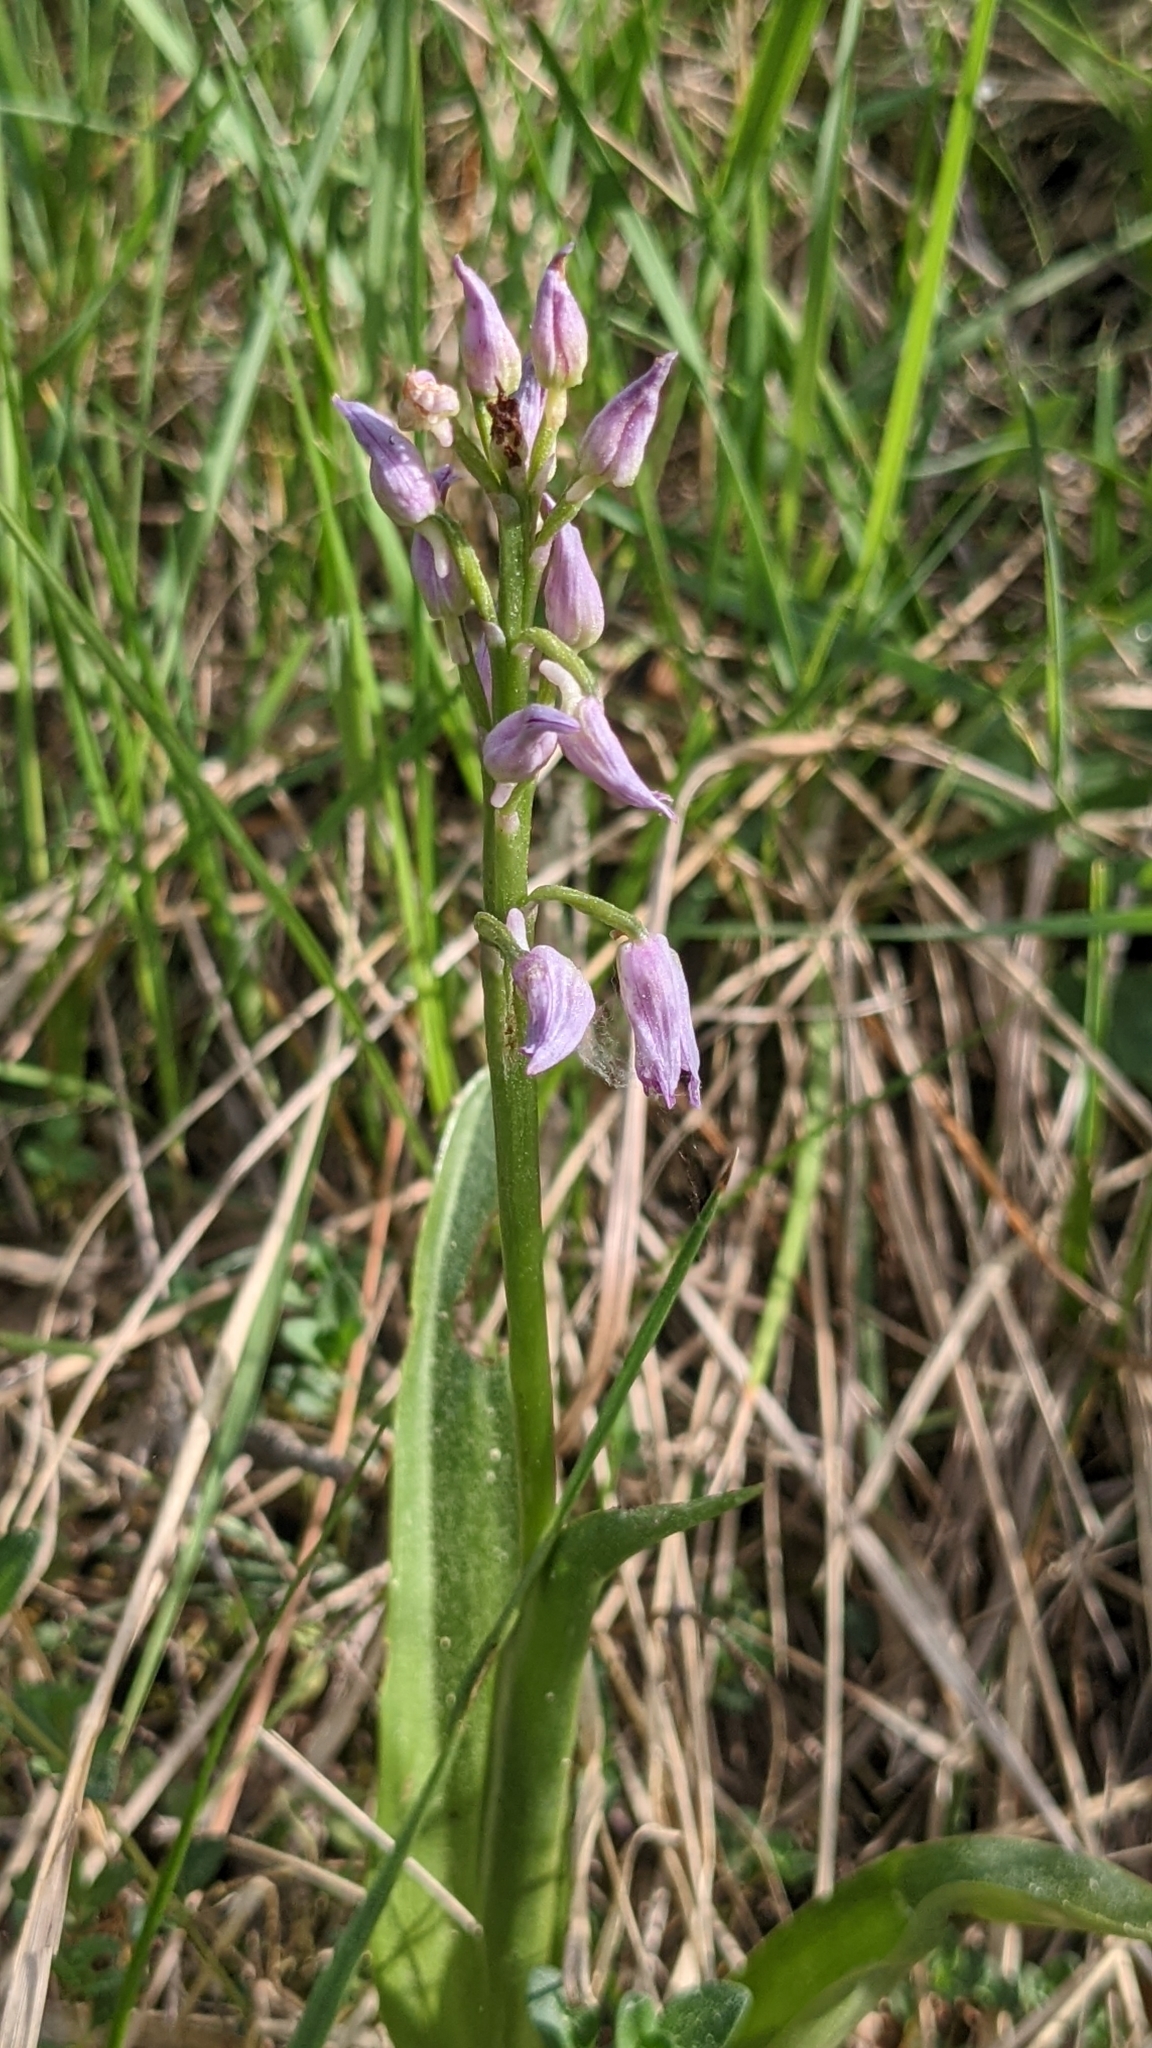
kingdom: Plantae
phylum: Tracheophyta
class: Liliopsida
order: Asparagales
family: Orchidaceae
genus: Orchis
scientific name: Orchis militaris
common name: Military orchid
